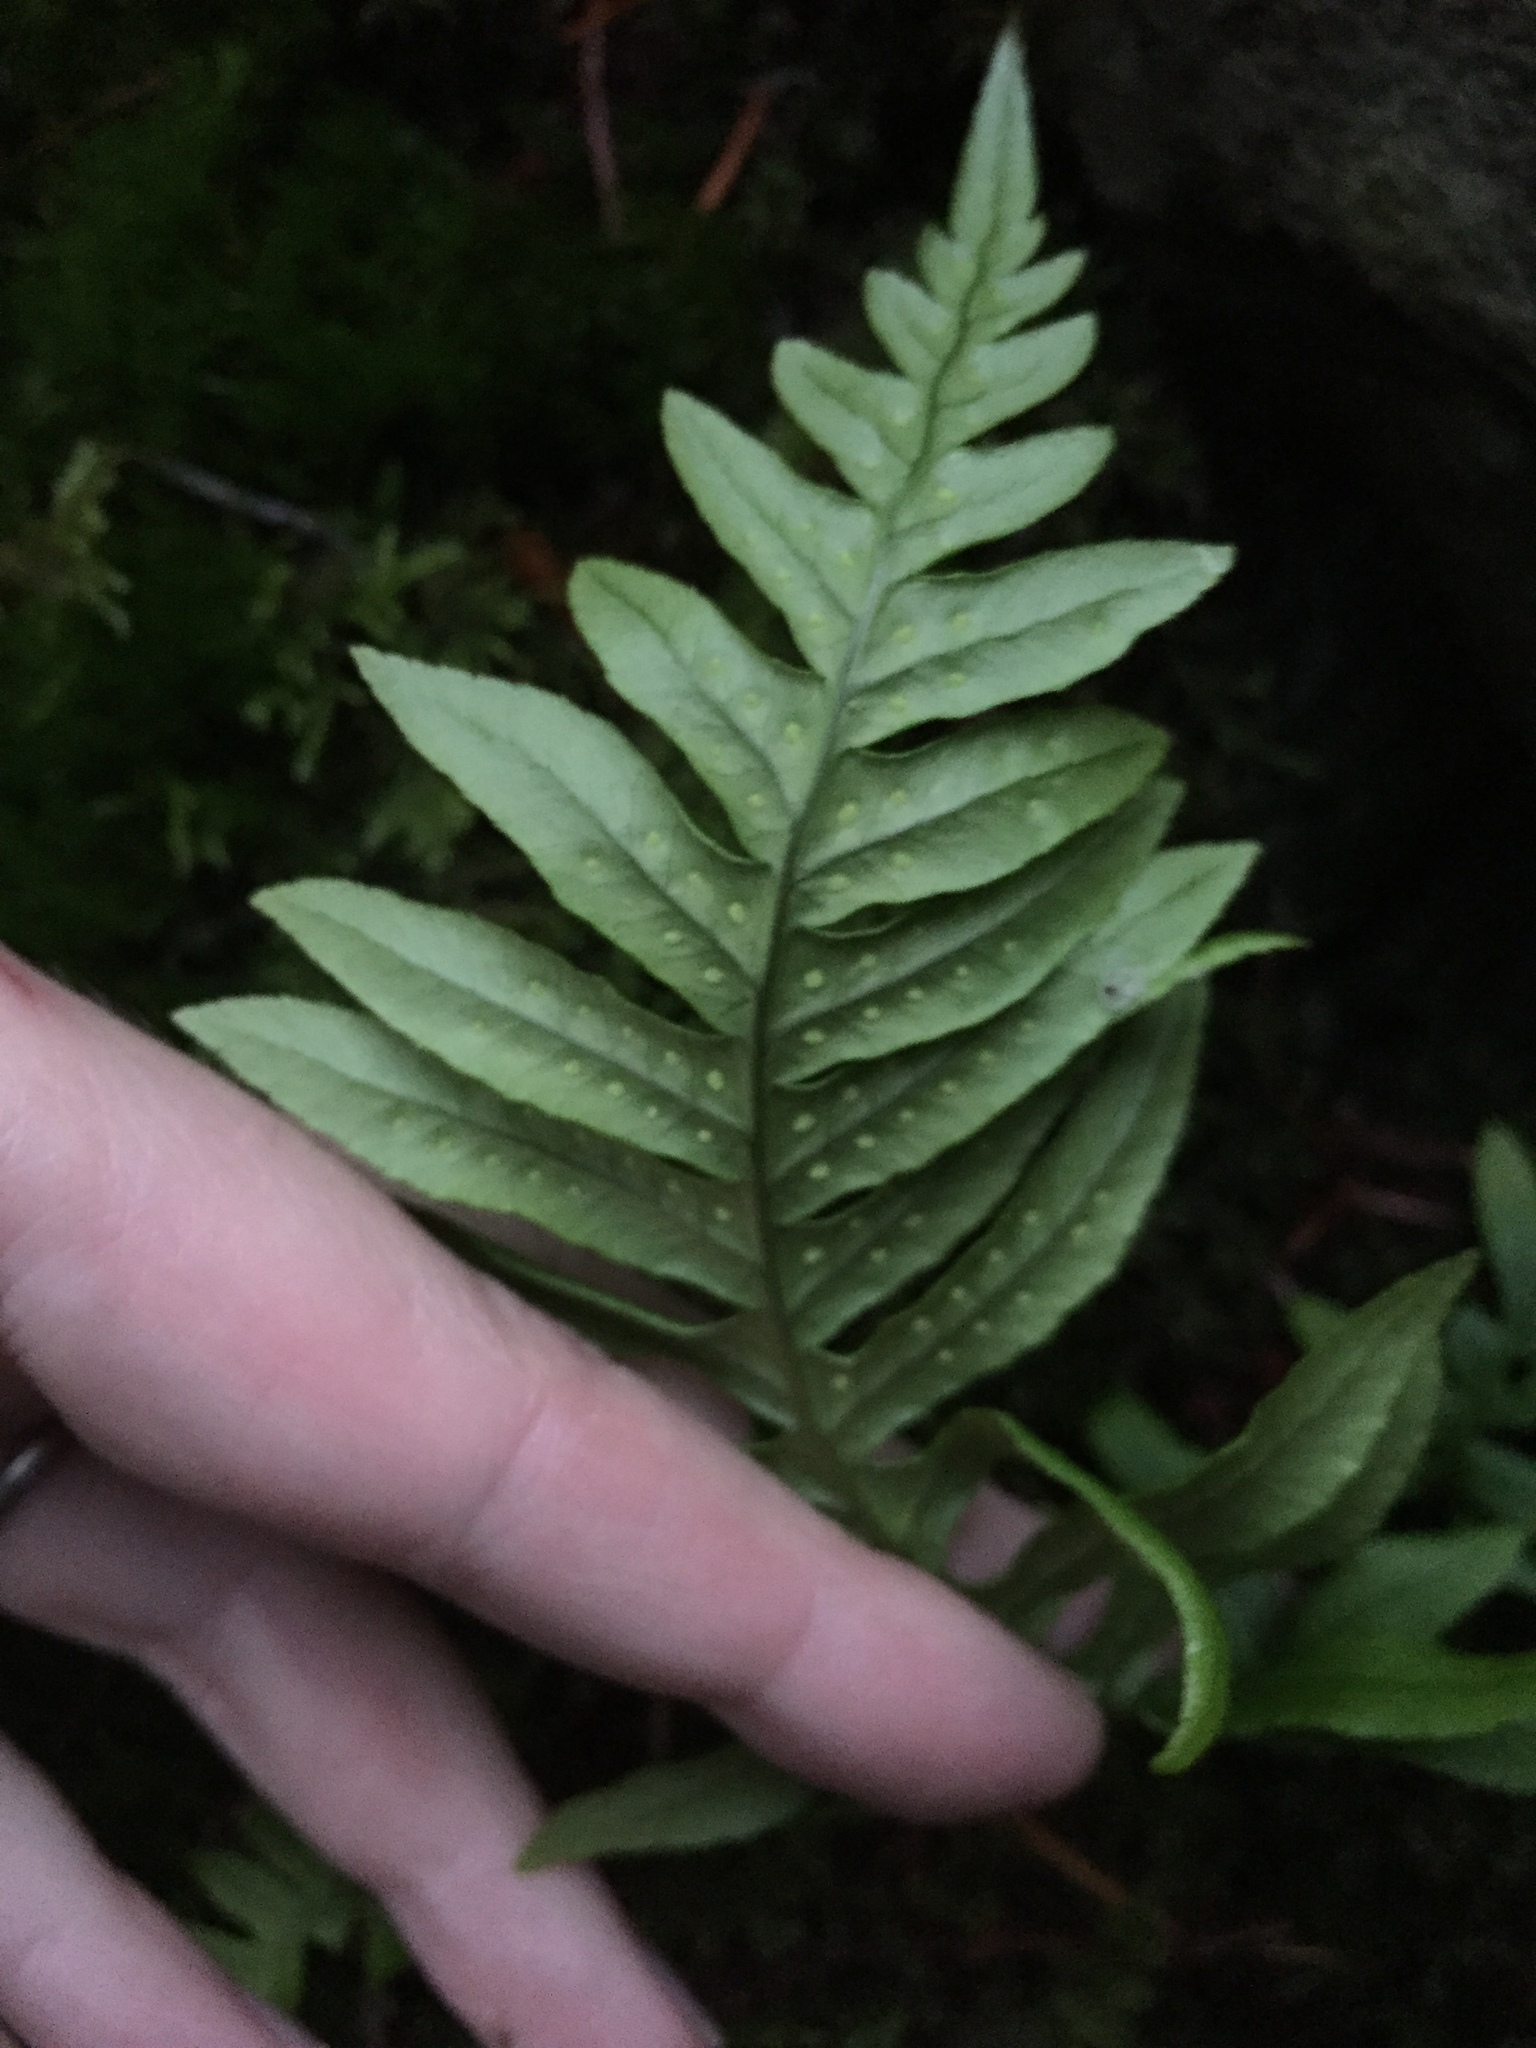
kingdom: Plantae
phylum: Tracheophyta
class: Polypodiopsida
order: Polypodiales
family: Polypodiaceae
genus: Polypodium
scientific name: Polypodium glycyrrhiza
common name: Licorice fern
